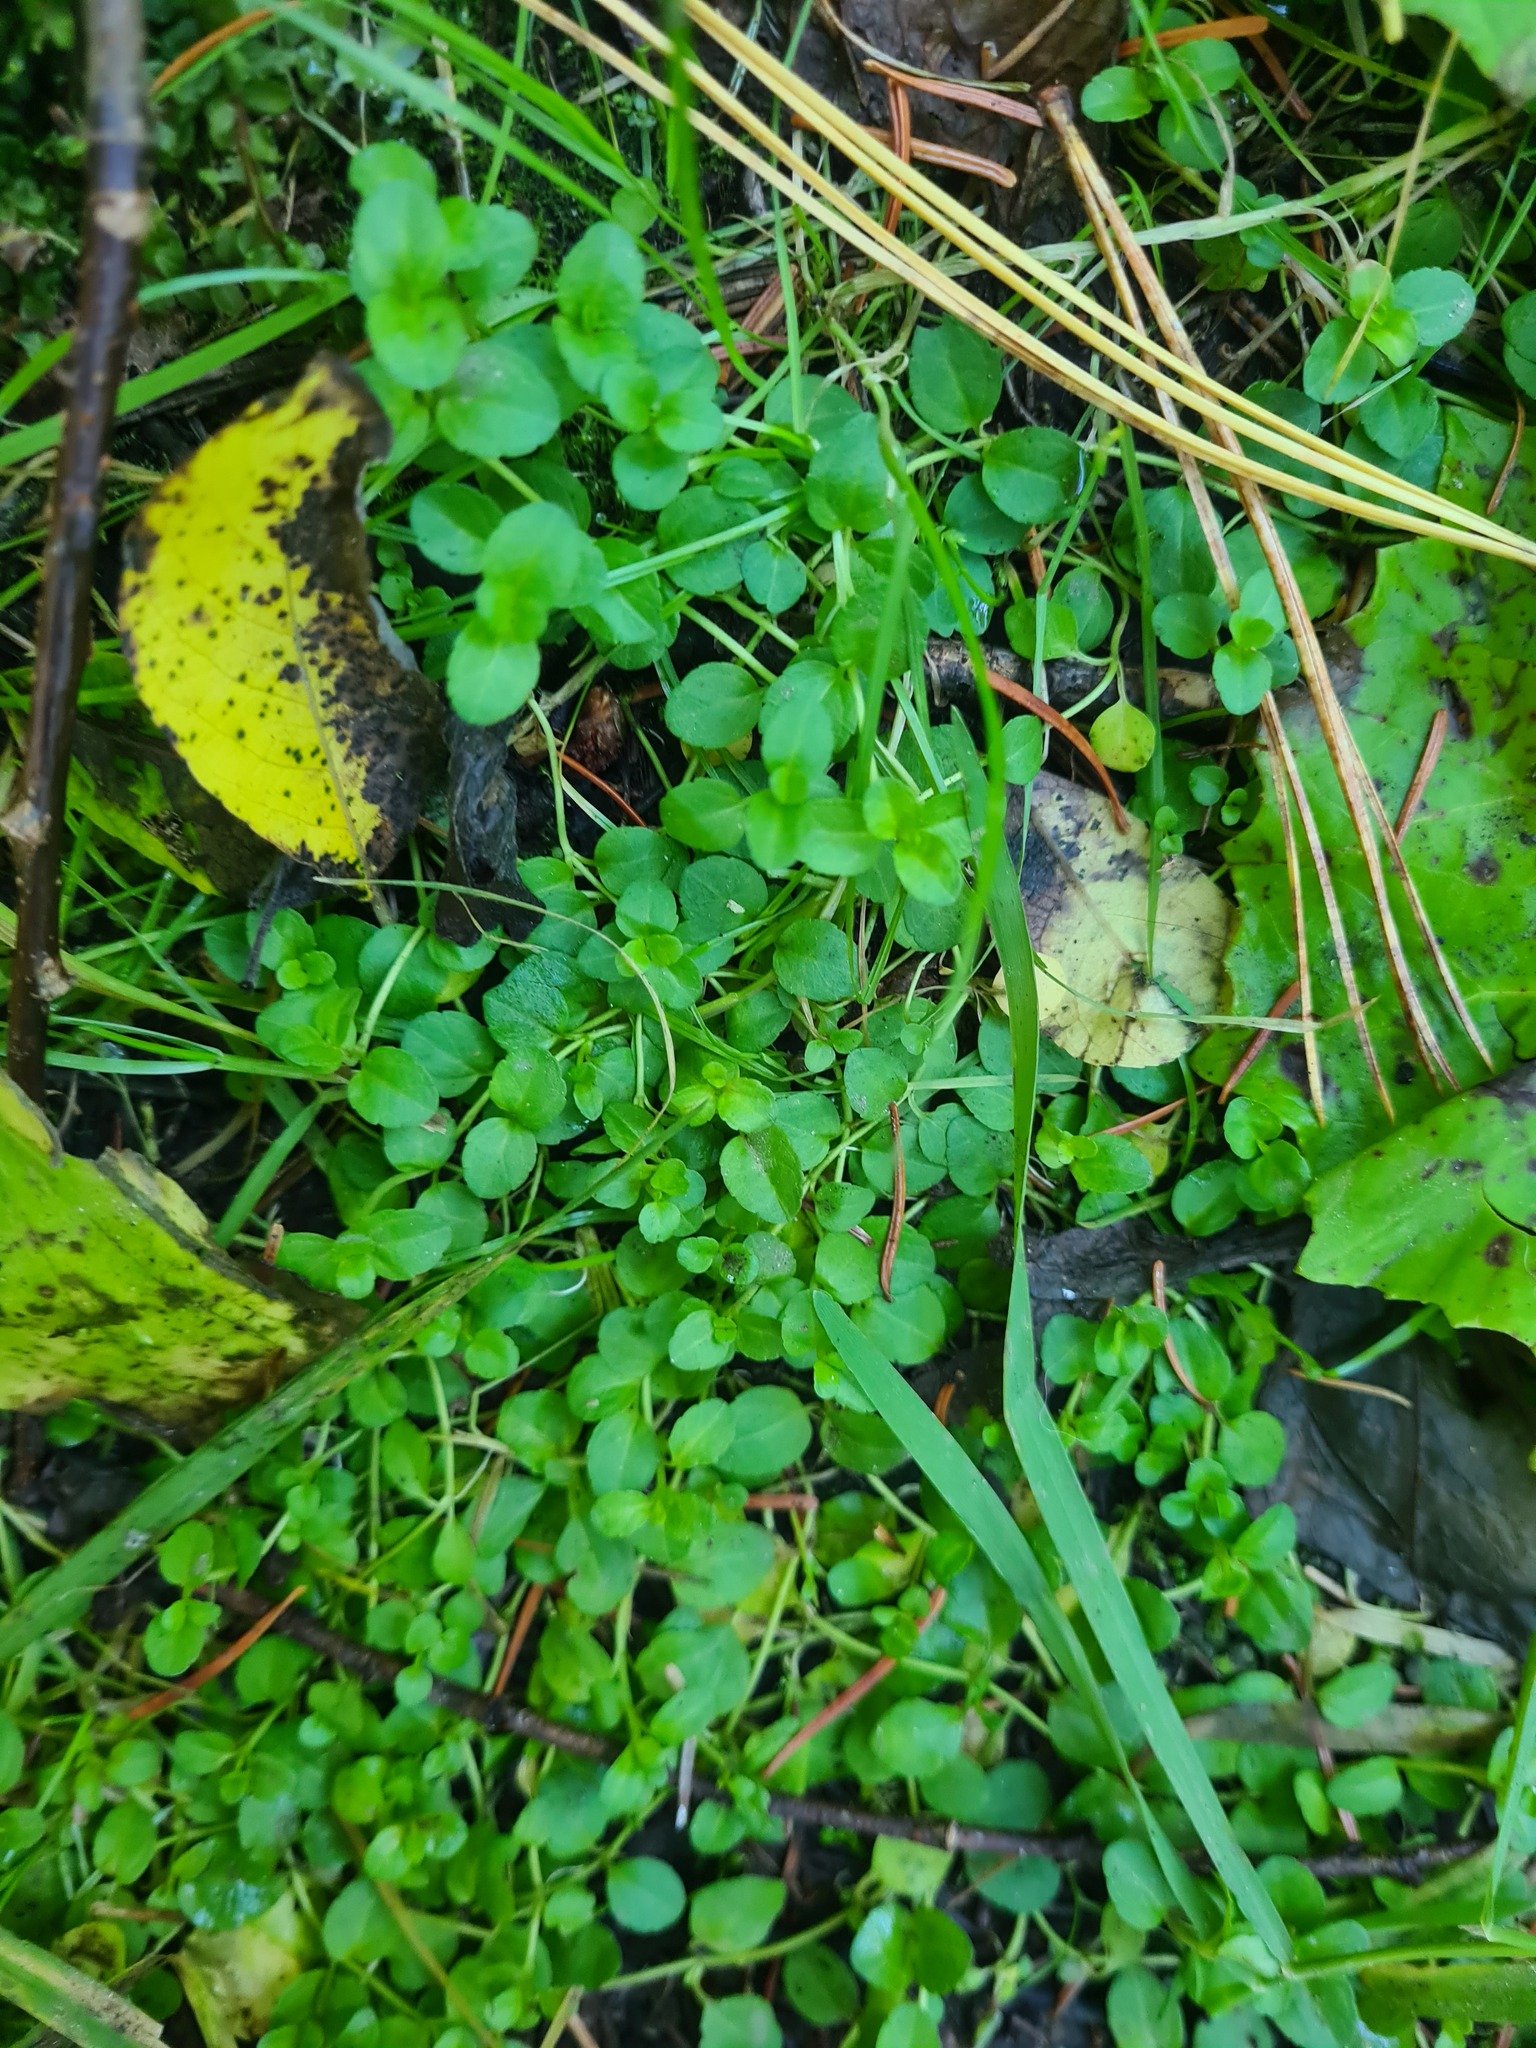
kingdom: Plantae
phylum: Tracheophyta
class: Magnoliopsida
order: Lamiales
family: Plantaginaceae
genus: Veronica
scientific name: Veronica serpyllifolia
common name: Thyme-leaved speedwell
